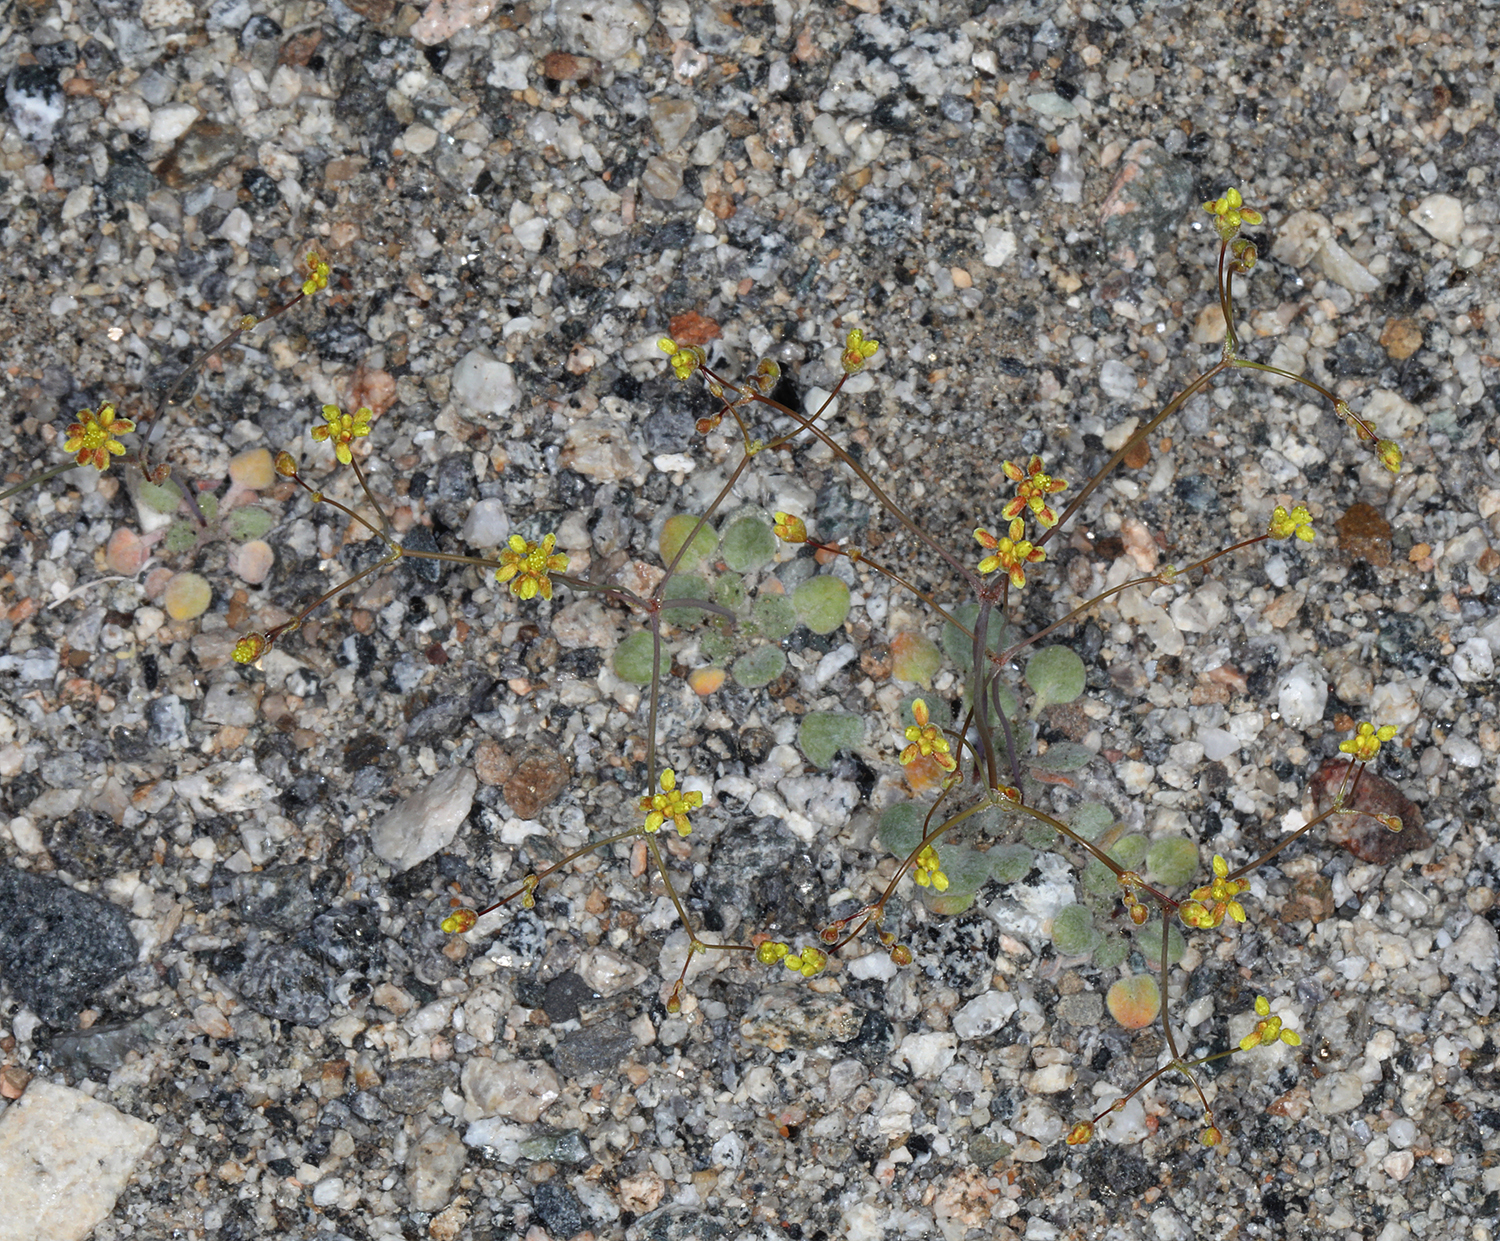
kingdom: Plantae
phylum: Tracheophyta
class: Magnoliopsida
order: Caryophyllales
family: Polygonaceae
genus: Eriogonum
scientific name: Eriogonum pusillum
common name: Yellow turbans
